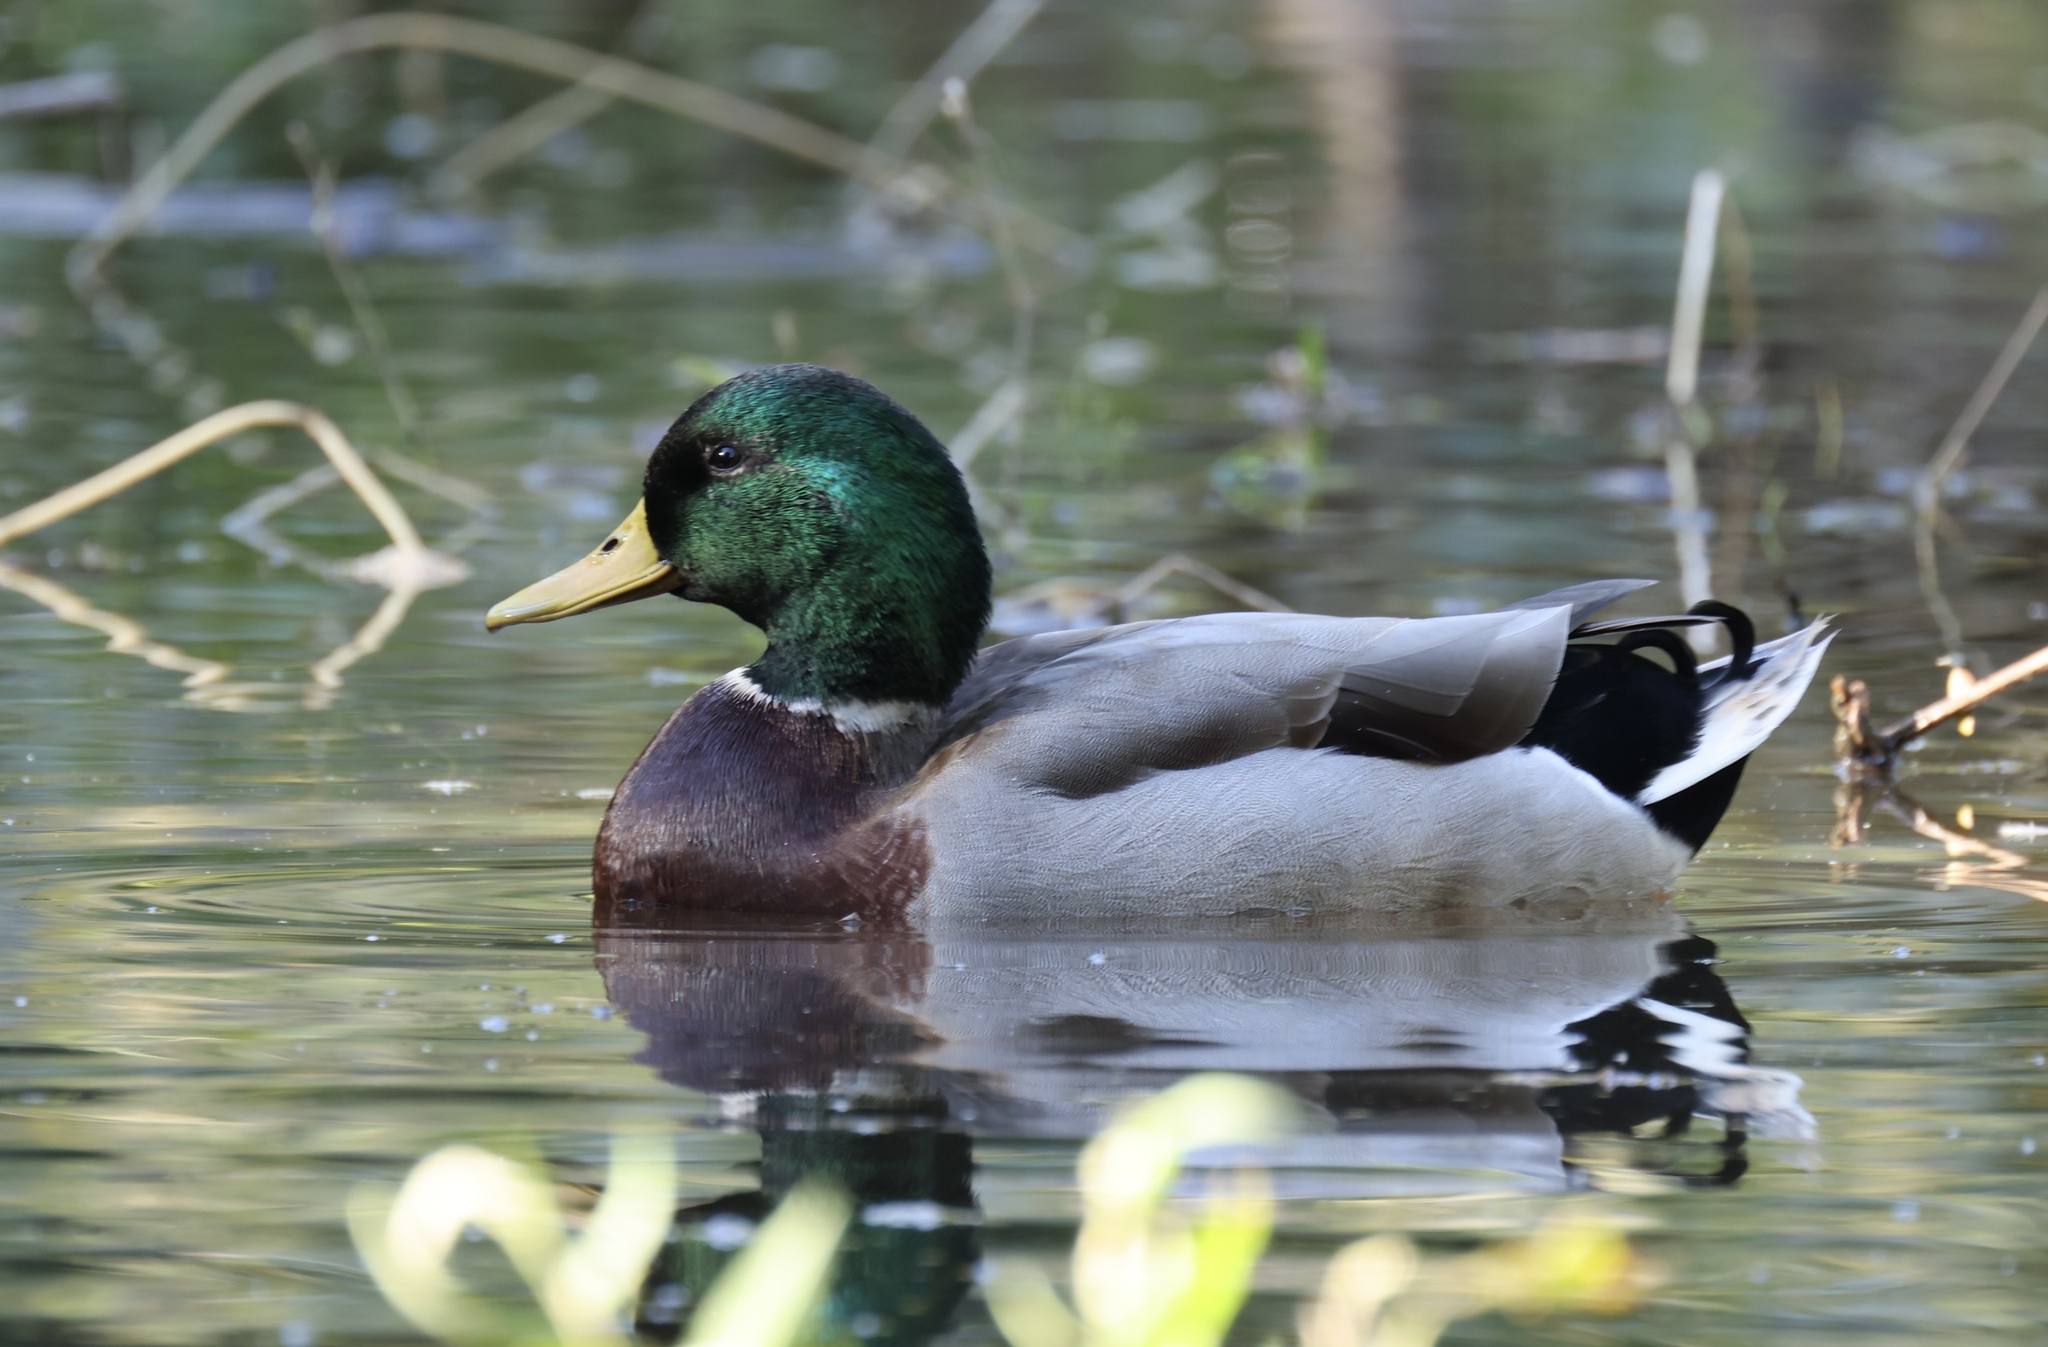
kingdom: Animalia
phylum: Chordata
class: Aves
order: Anseriformes
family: Anatidae
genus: Anas
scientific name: Anas platyrhynchos
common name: Mallard
